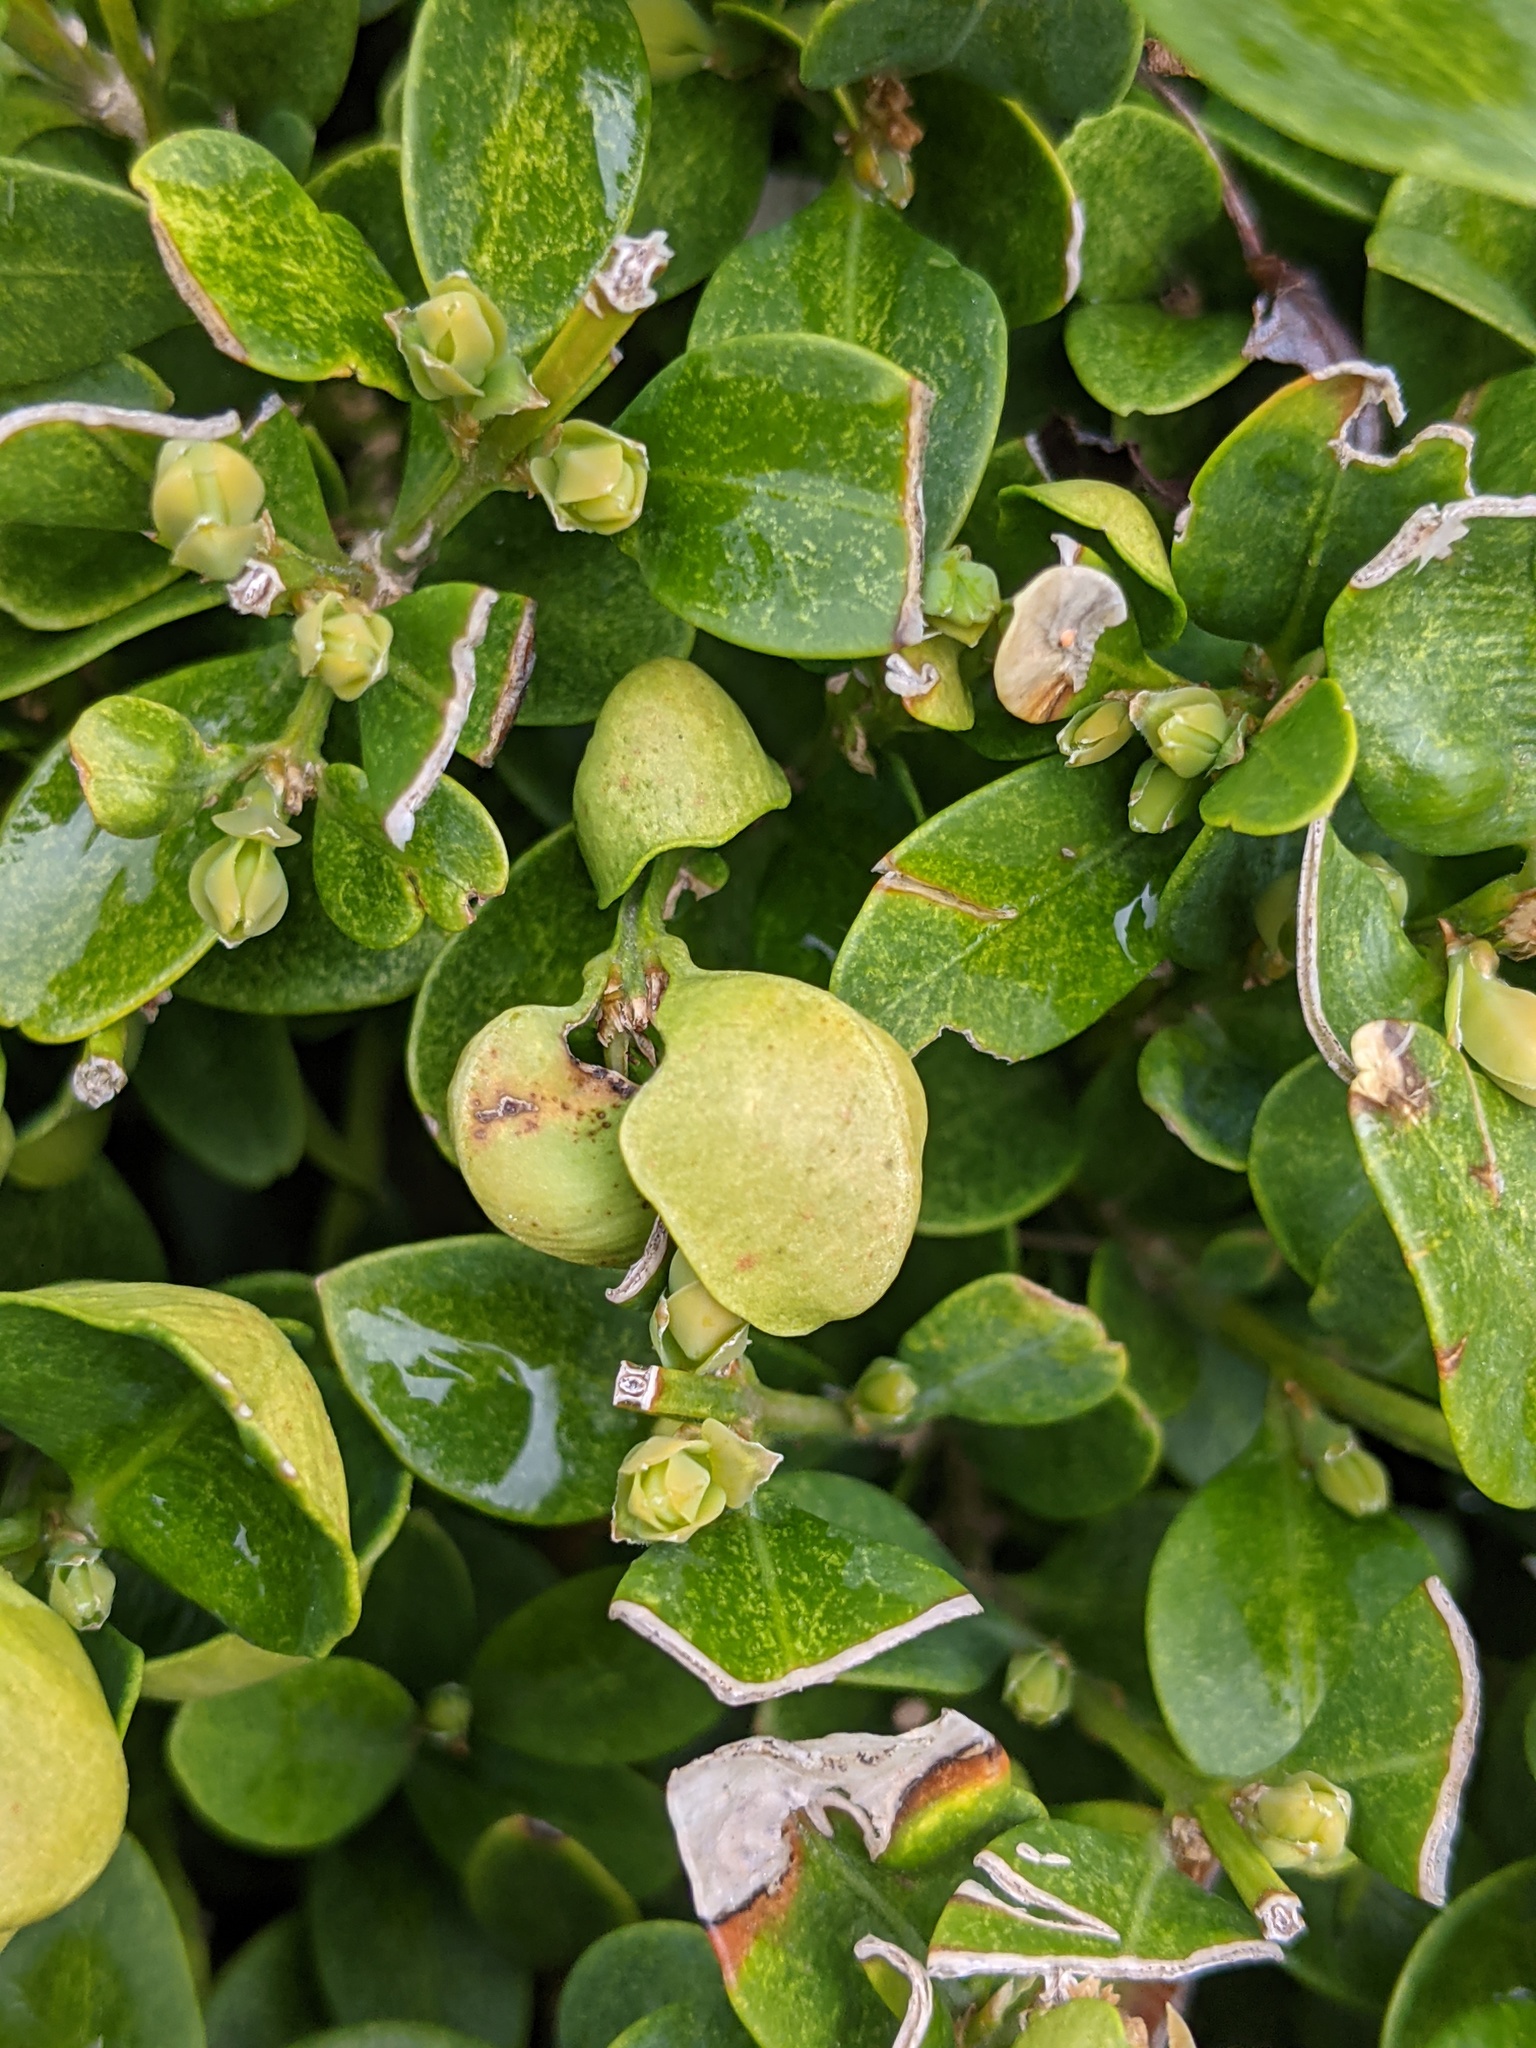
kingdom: Animalia
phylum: Arthropoda
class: Insecta
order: Hemiptera
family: Psyllidae
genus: Psylla
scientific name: Psylla buxi
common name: Boxwood psyllid
